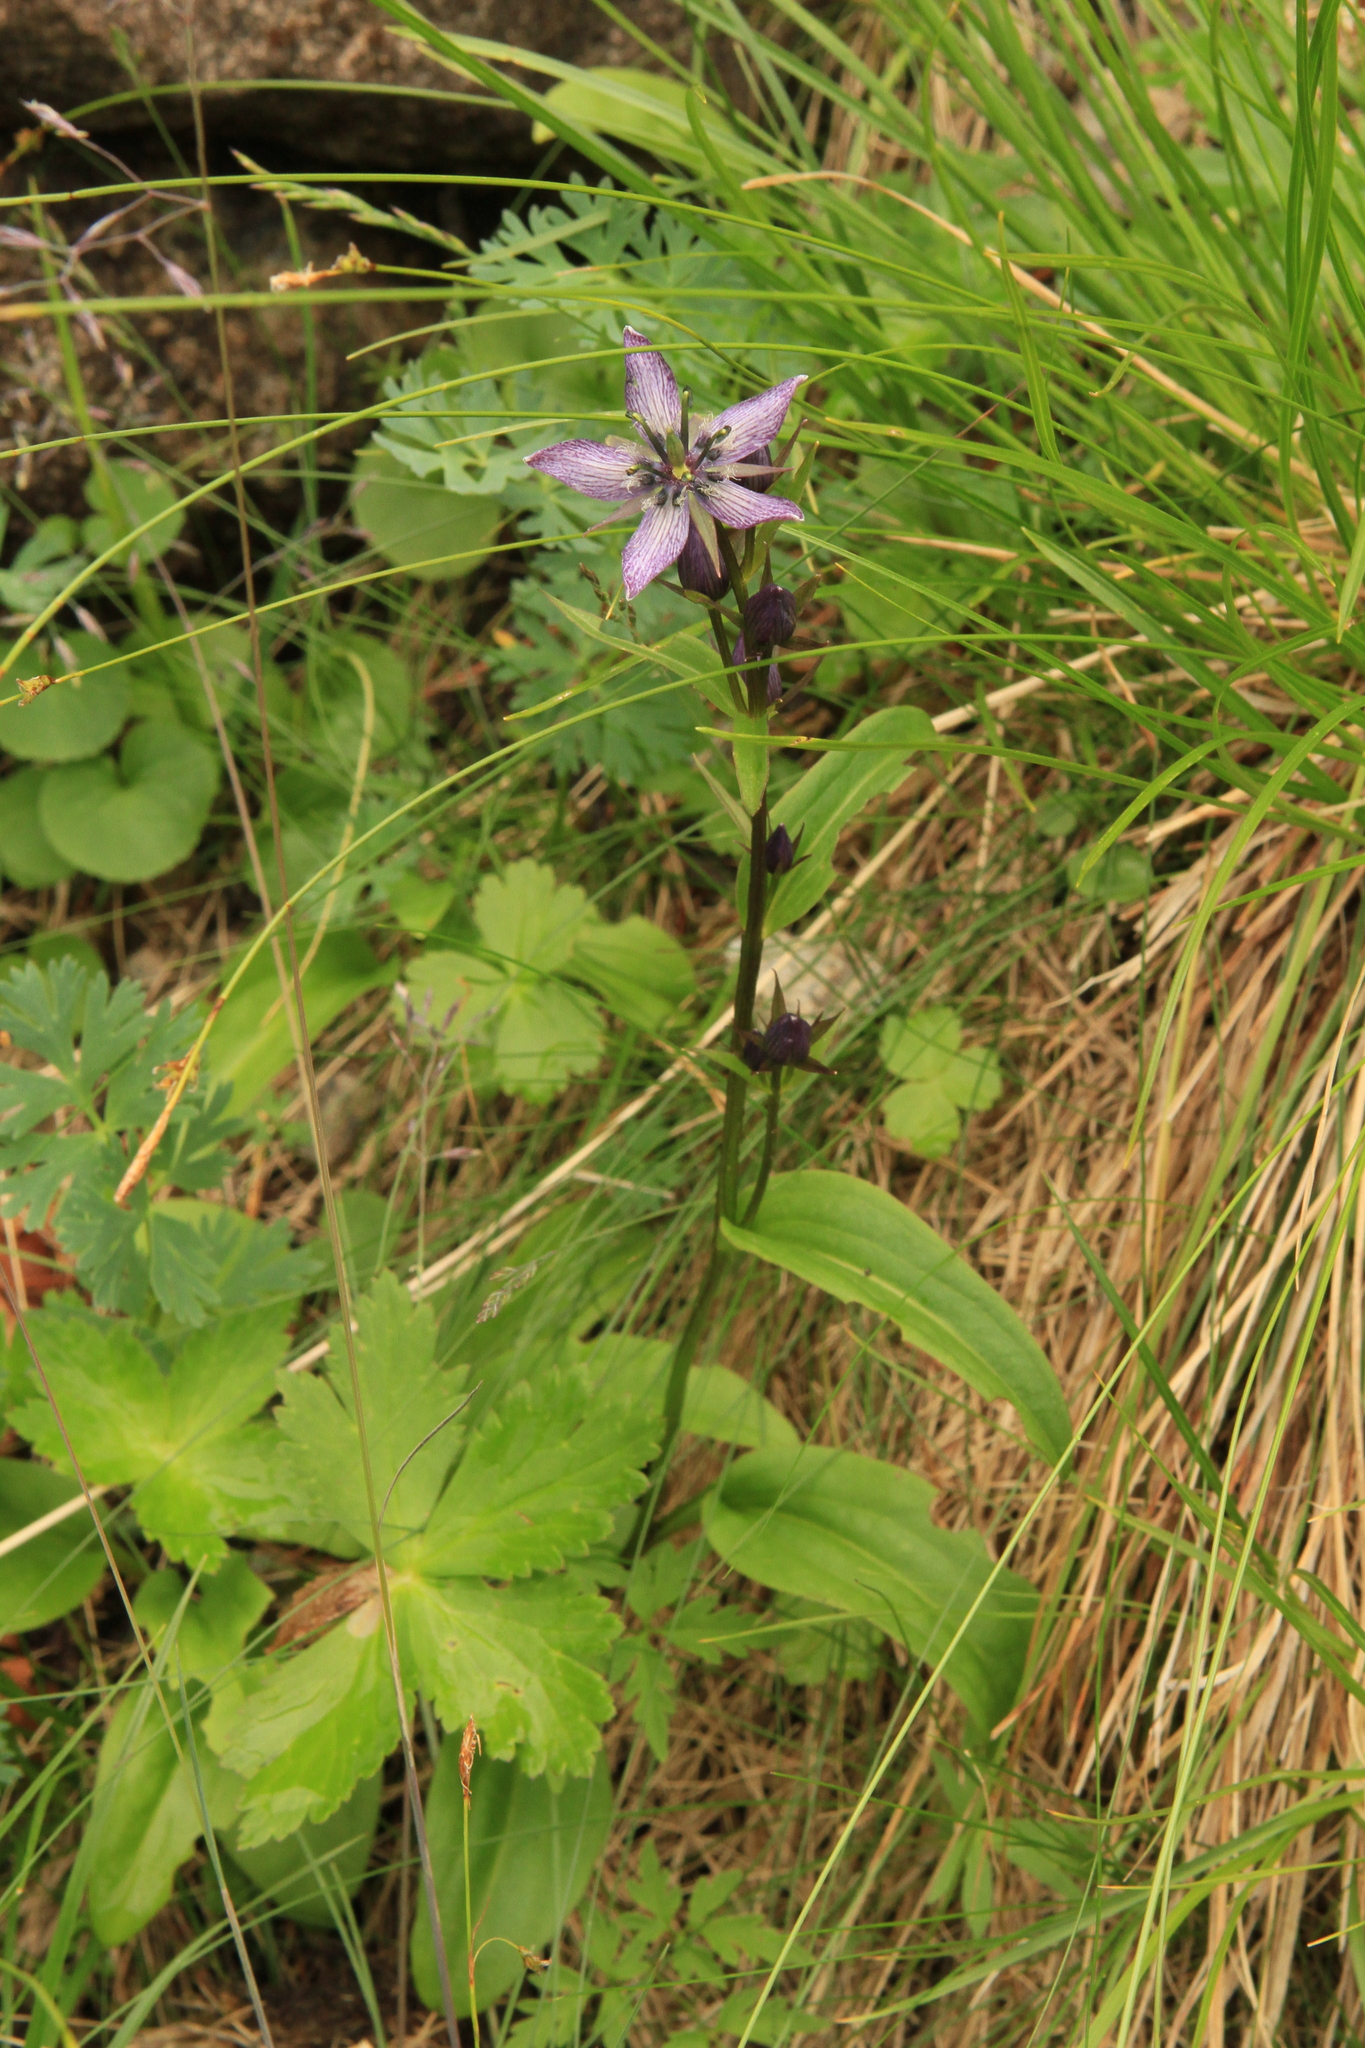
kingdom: Plantae
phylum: Tracheophyta
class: Magnoliopsida
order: Gentianales
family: Gentianaceae
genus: Swertia
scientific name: Swertia obtusa
